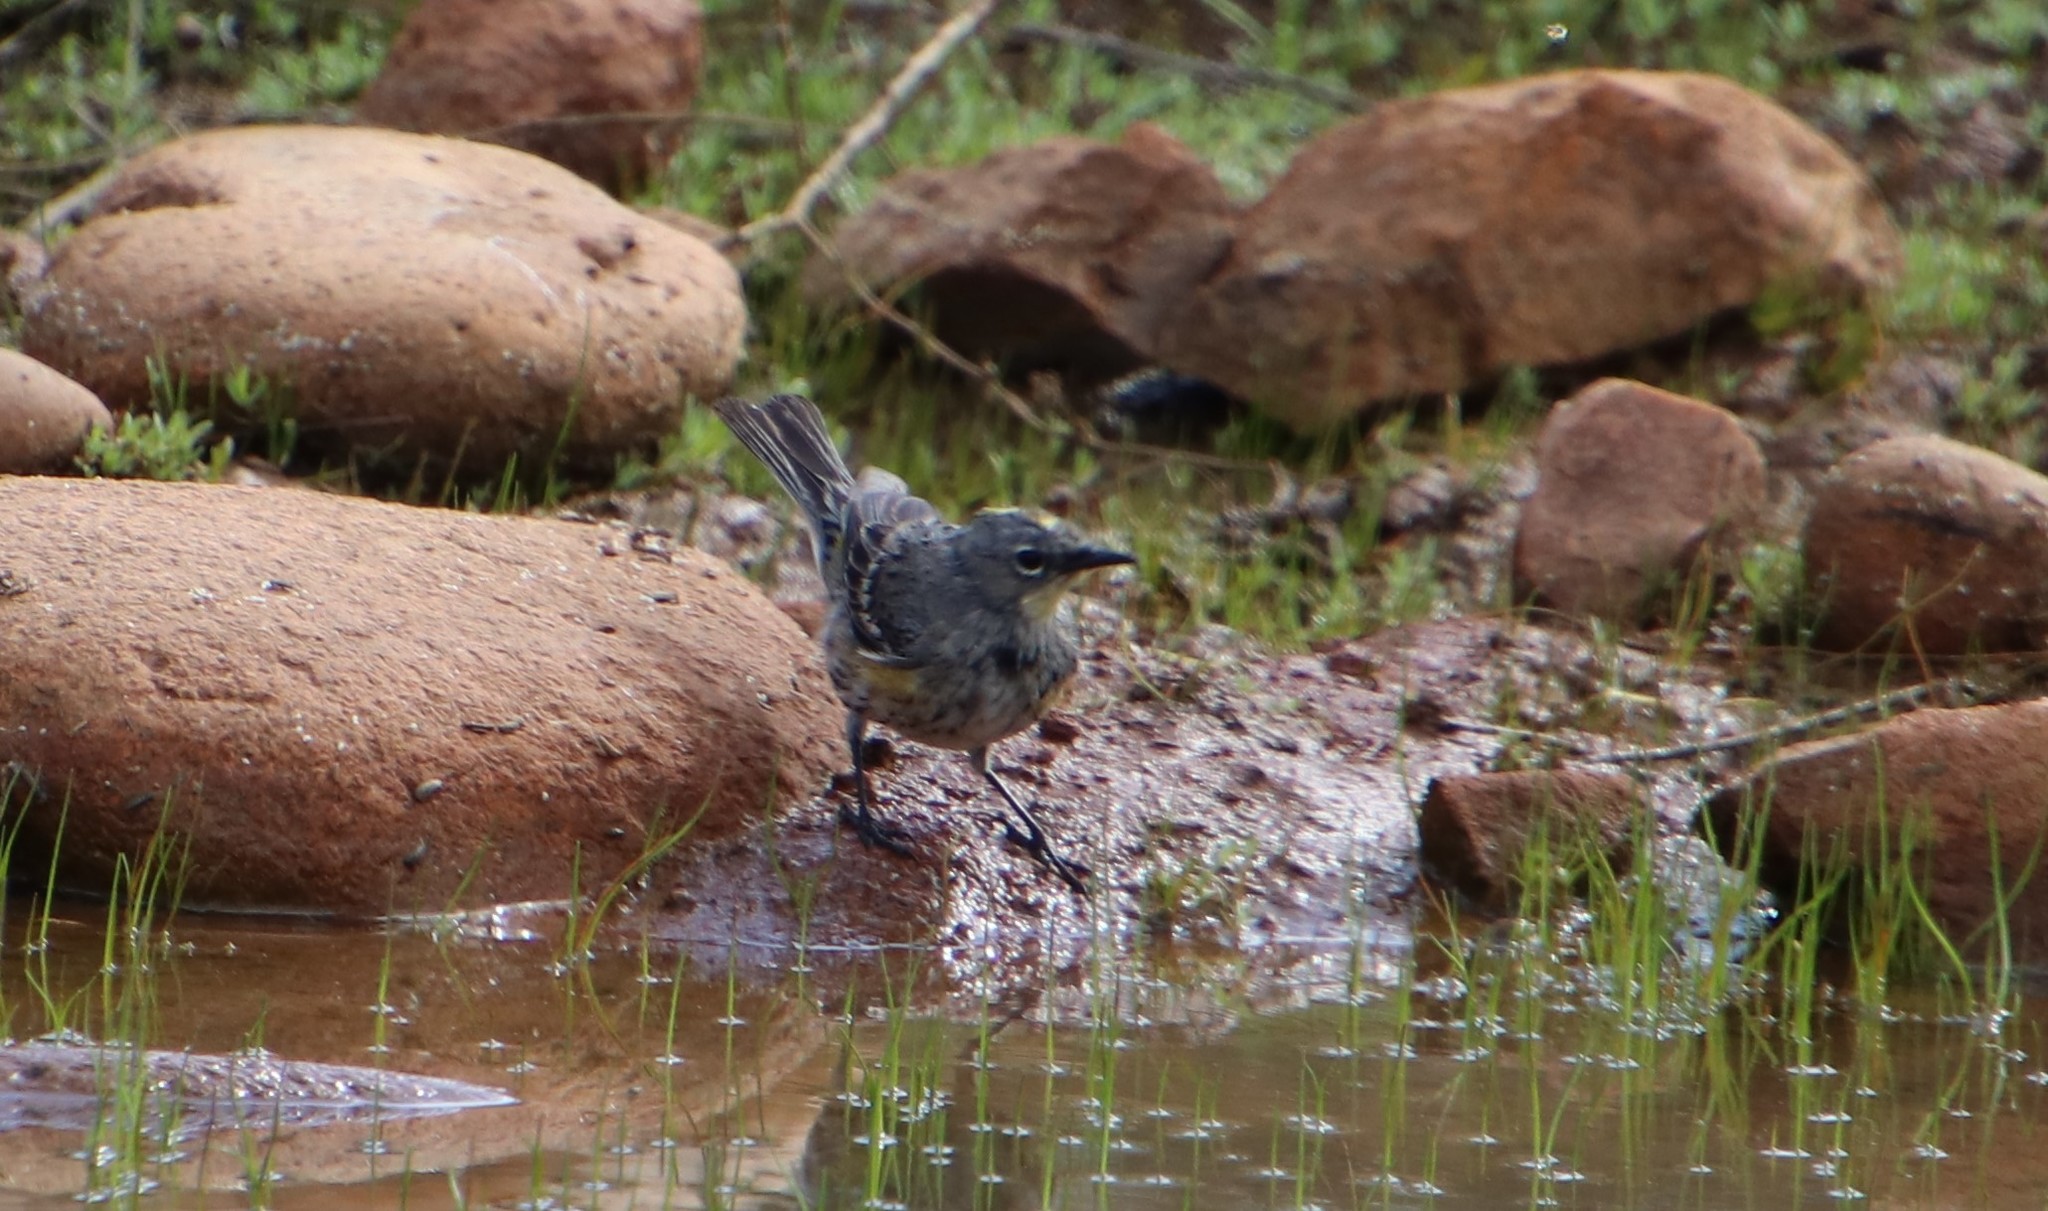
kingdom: Animalia
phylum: Chordata
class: Aves
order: Passeriformes
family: Parulidae
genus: Setophaga
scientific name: Setophaga auduboni
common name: Audubon's warbler
